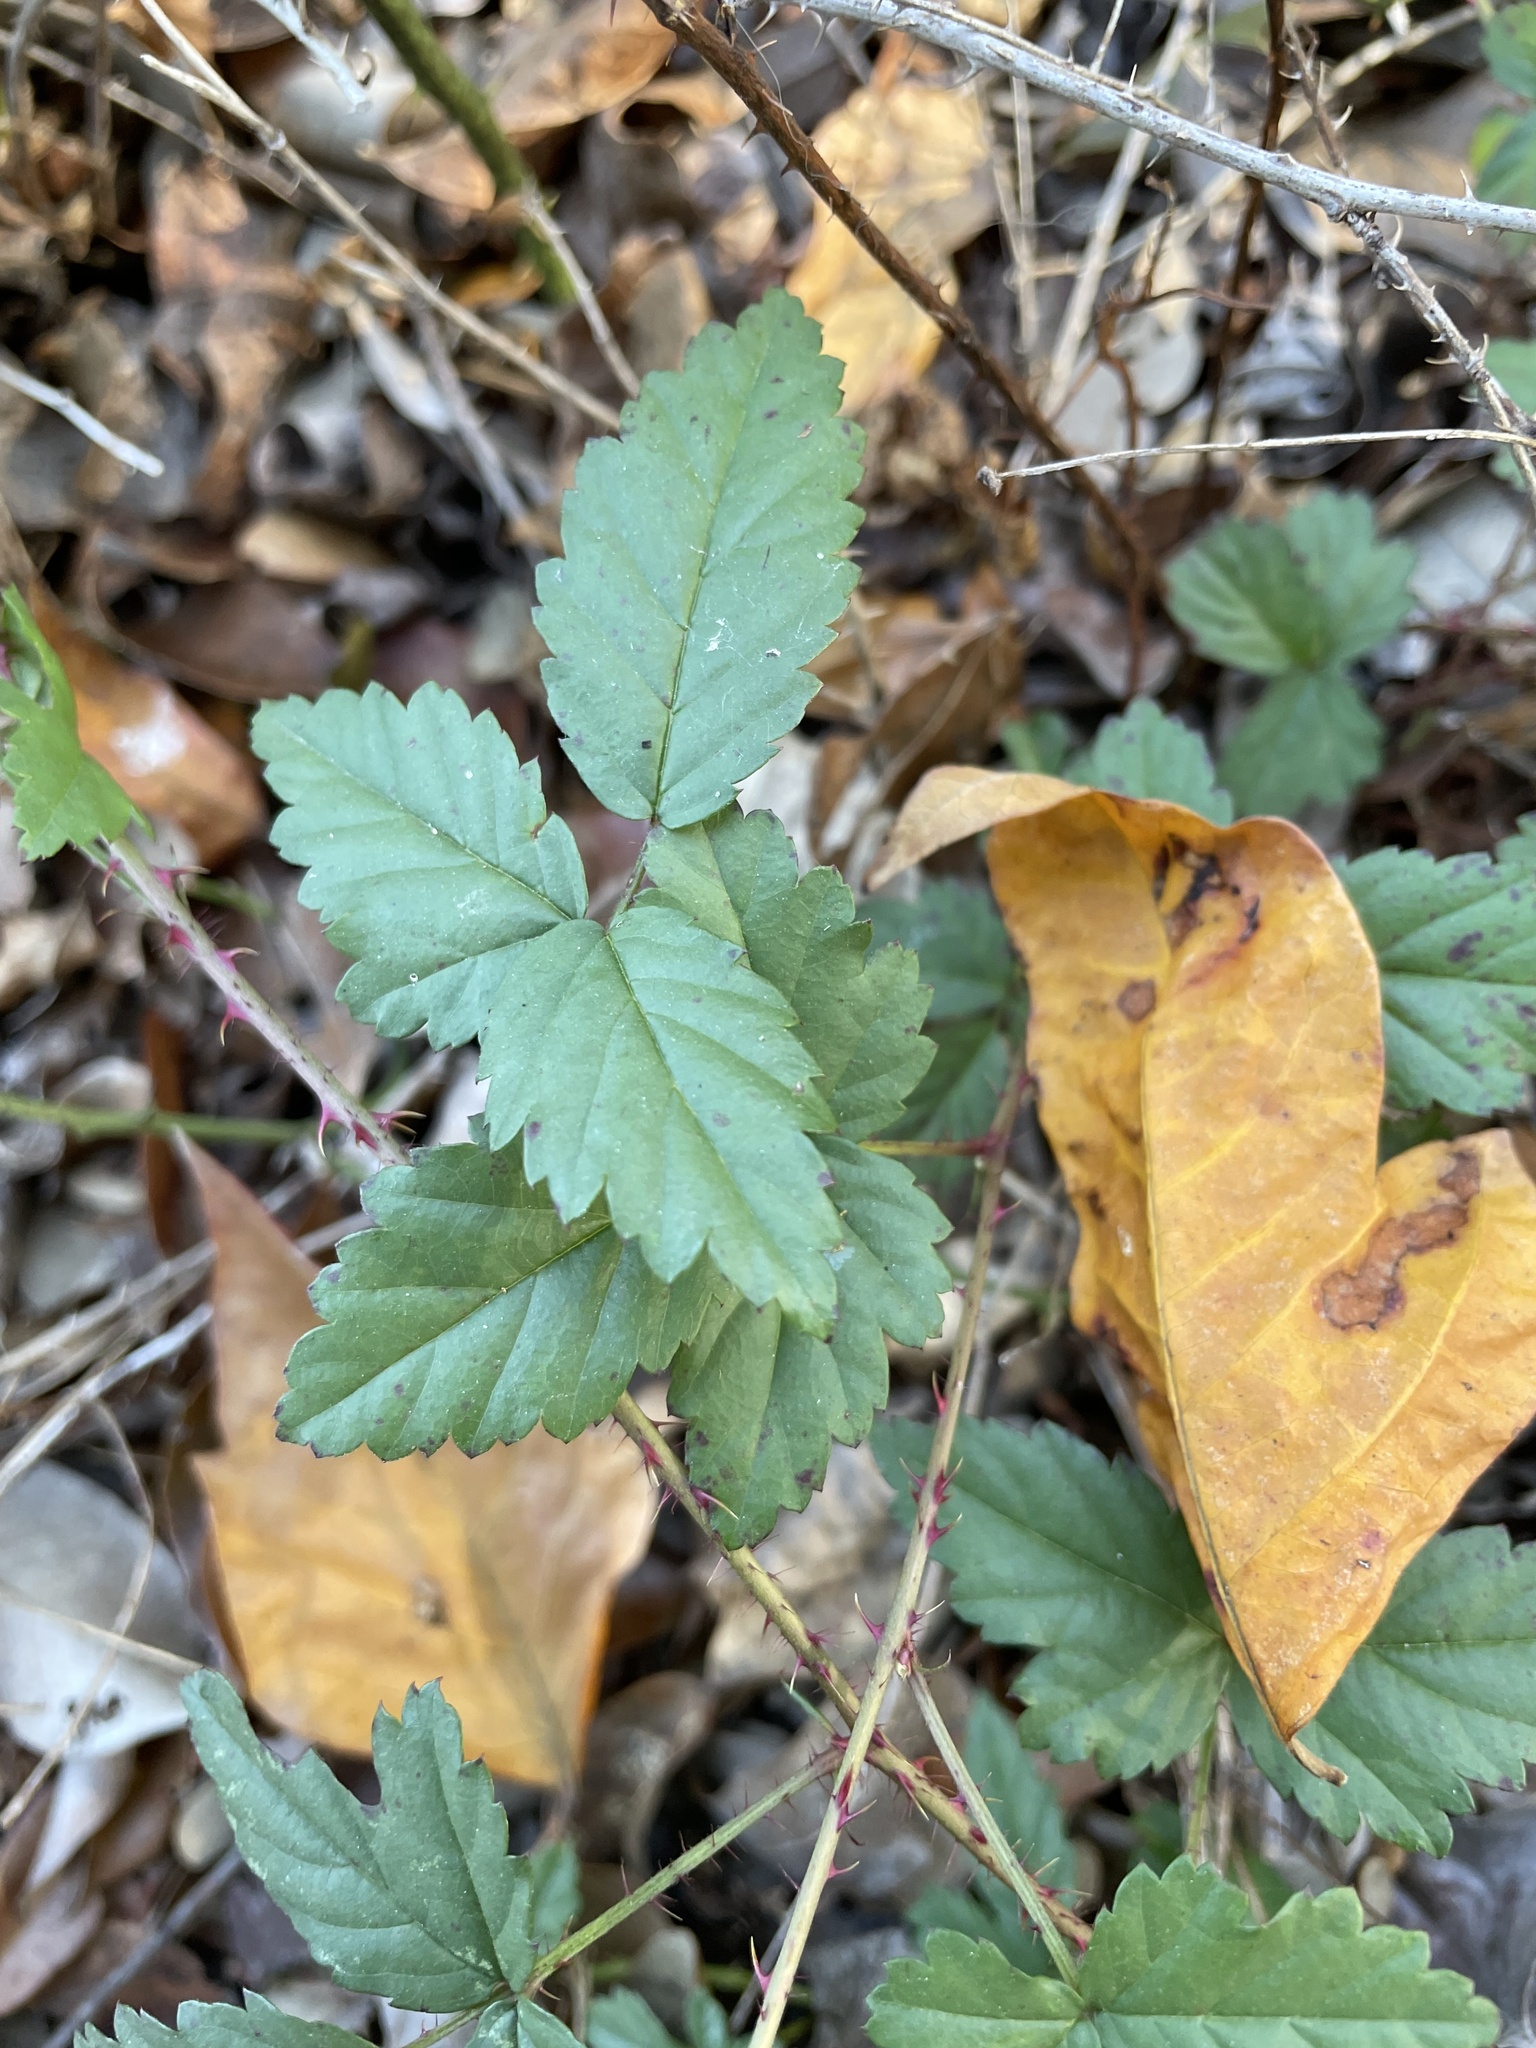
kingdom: Plantae
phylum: Tracheophyta
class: Magnoliopsida
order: Rosales
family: Rosaceae
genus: Rubus
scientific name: Rubus trivialis
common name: Southern dewberry
